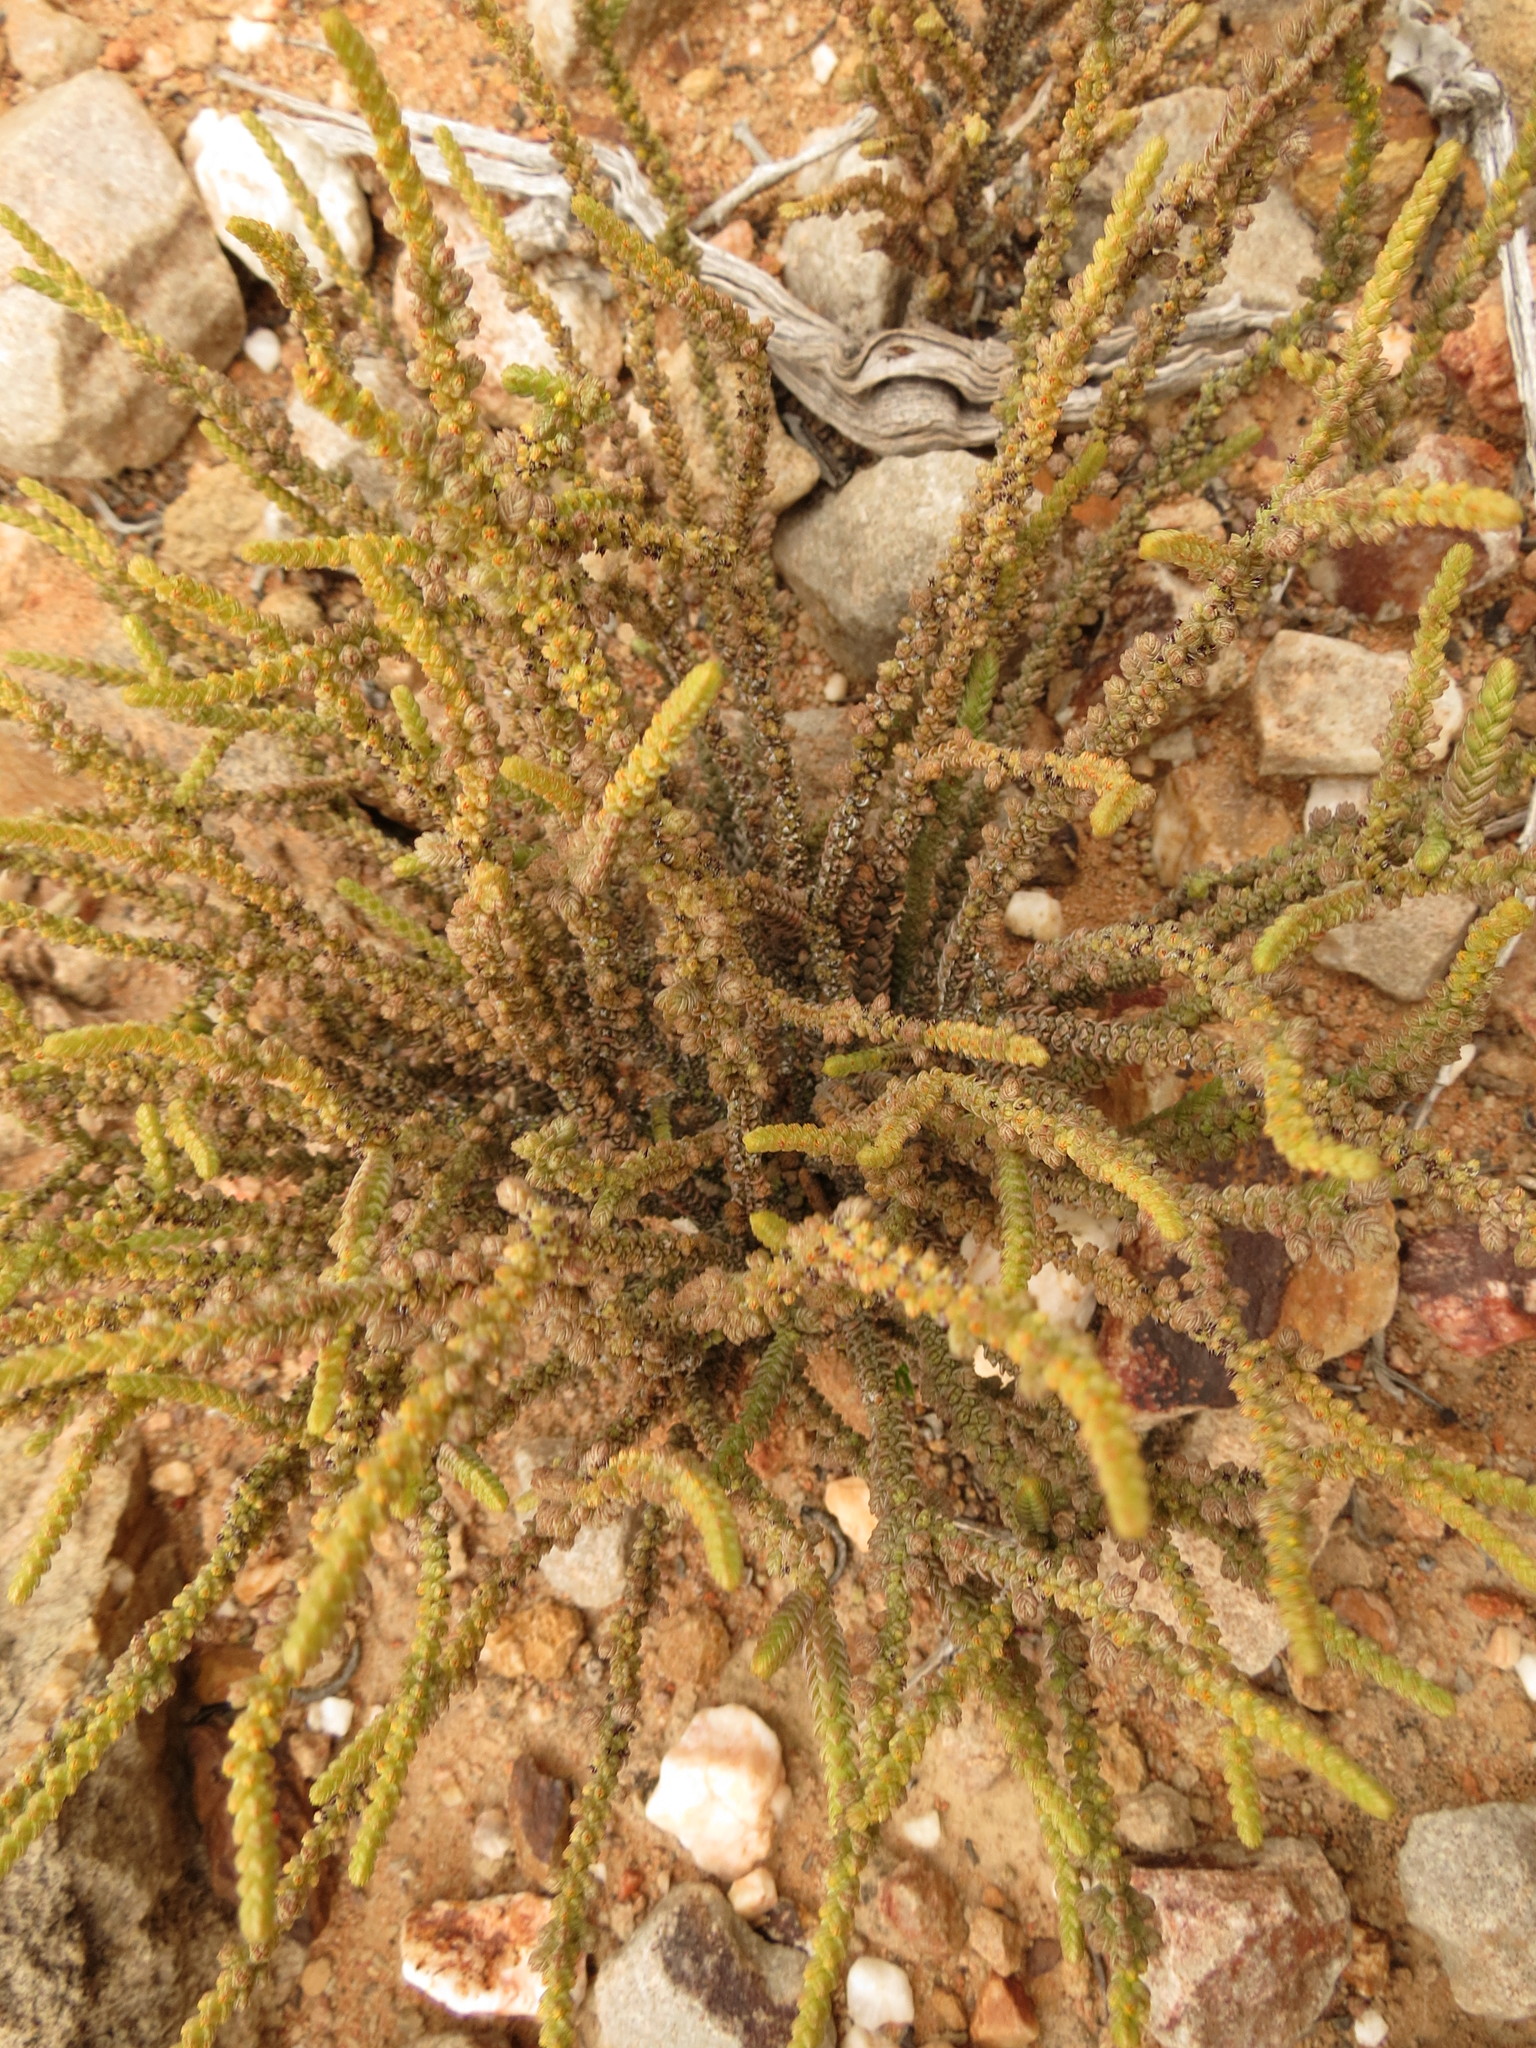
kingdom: Plantae
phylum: Tracheophyta
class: Magnoliopsida
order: Saxifragales
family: Crassulaceae
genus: Crassula
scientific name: Crassula muscosa
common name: Toy-cypress
